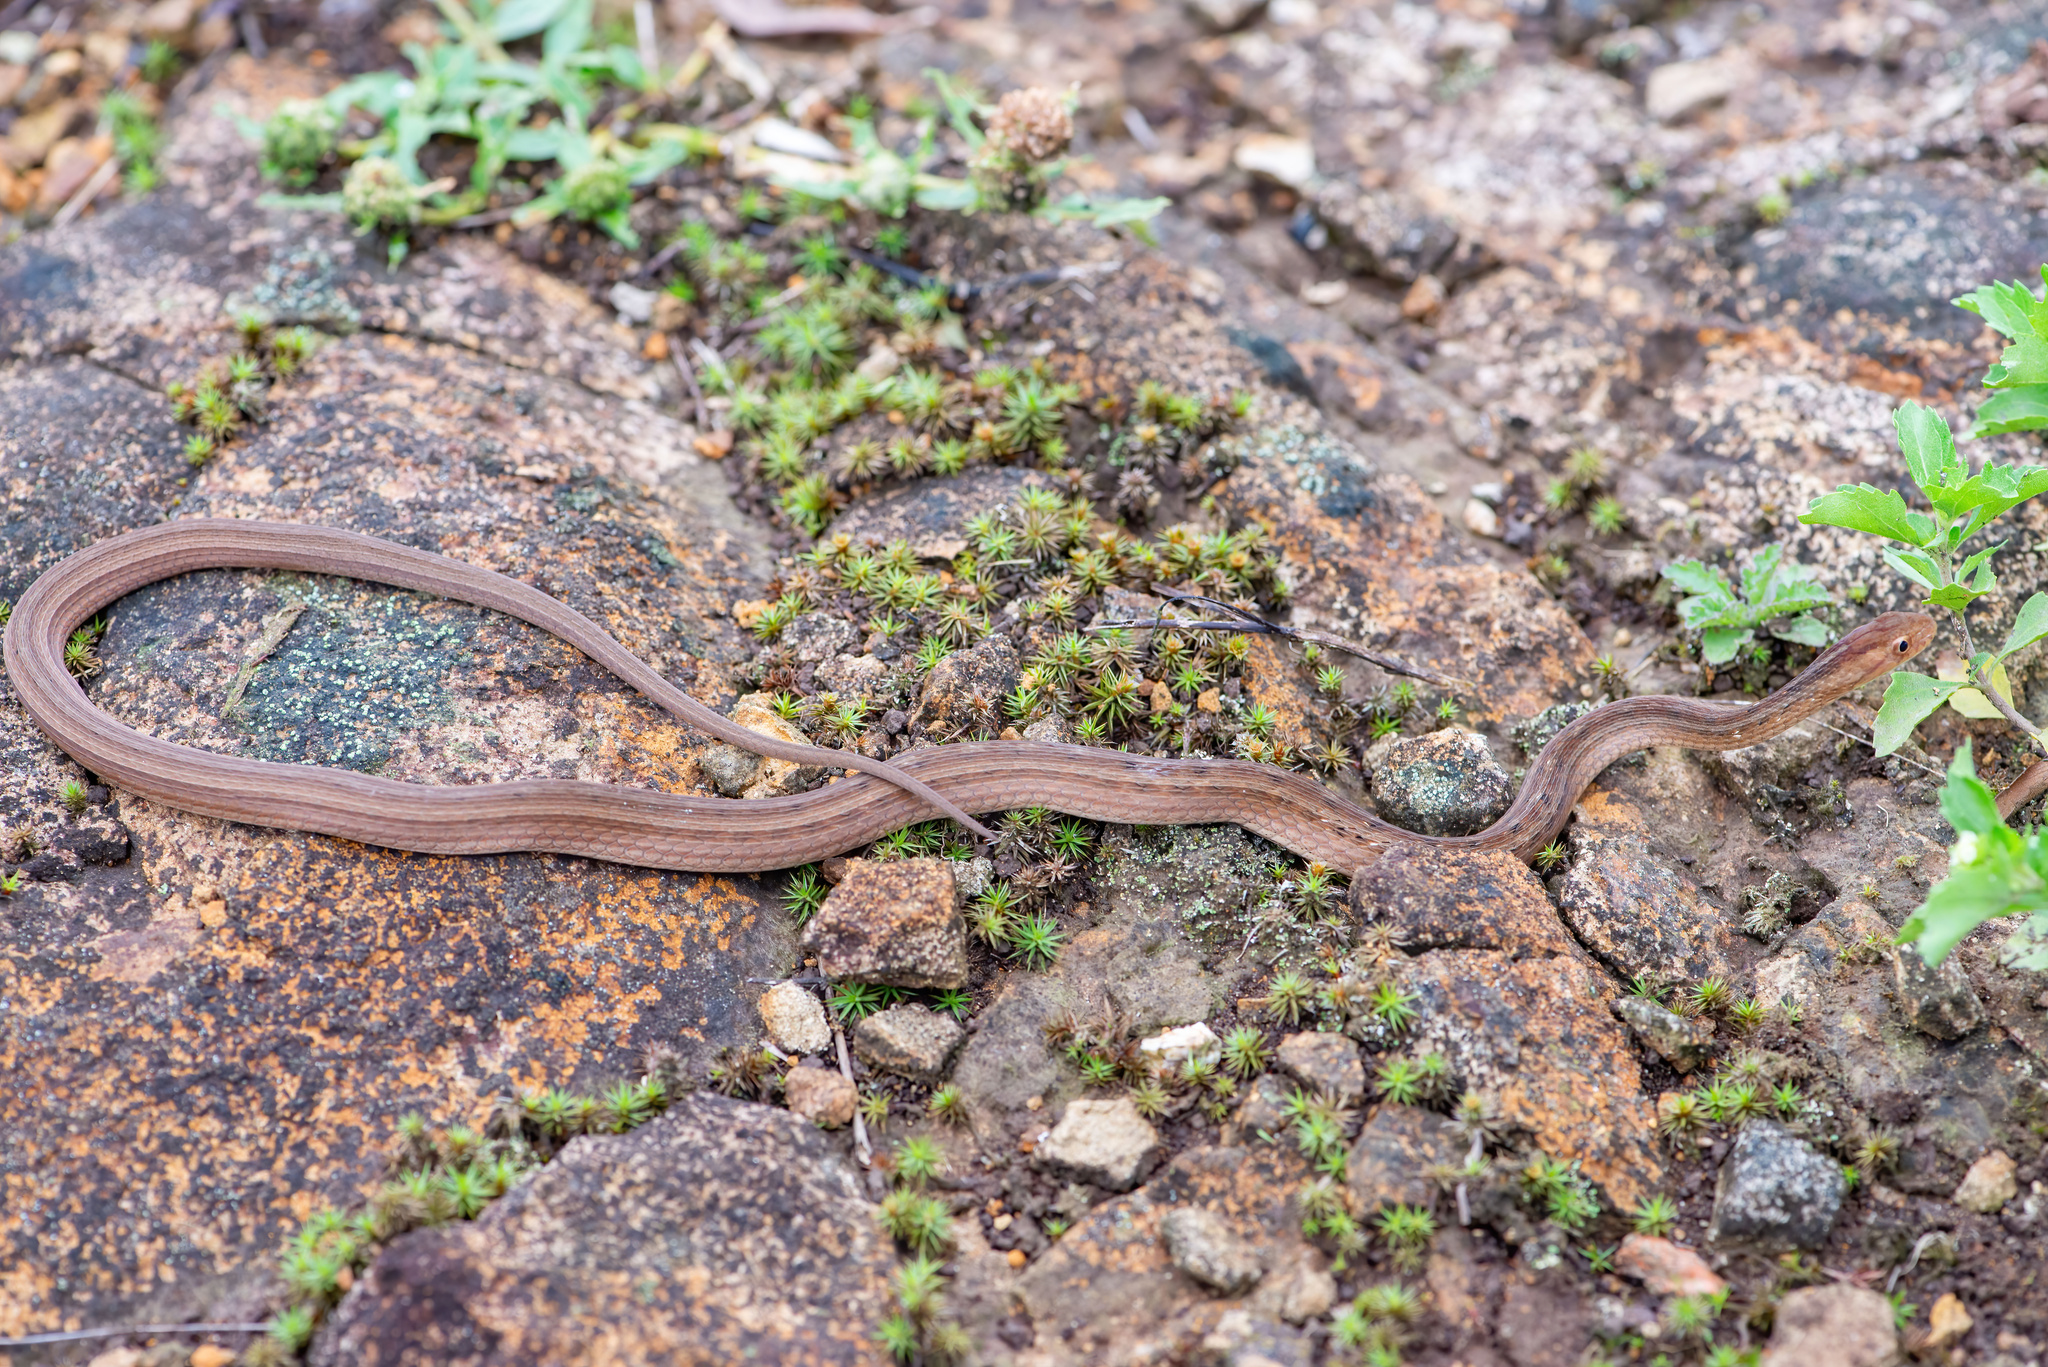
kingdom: Animalia
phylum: Chordata
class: Squamata
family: Colubridae
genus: Dryophylax
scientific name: Dryophylax
